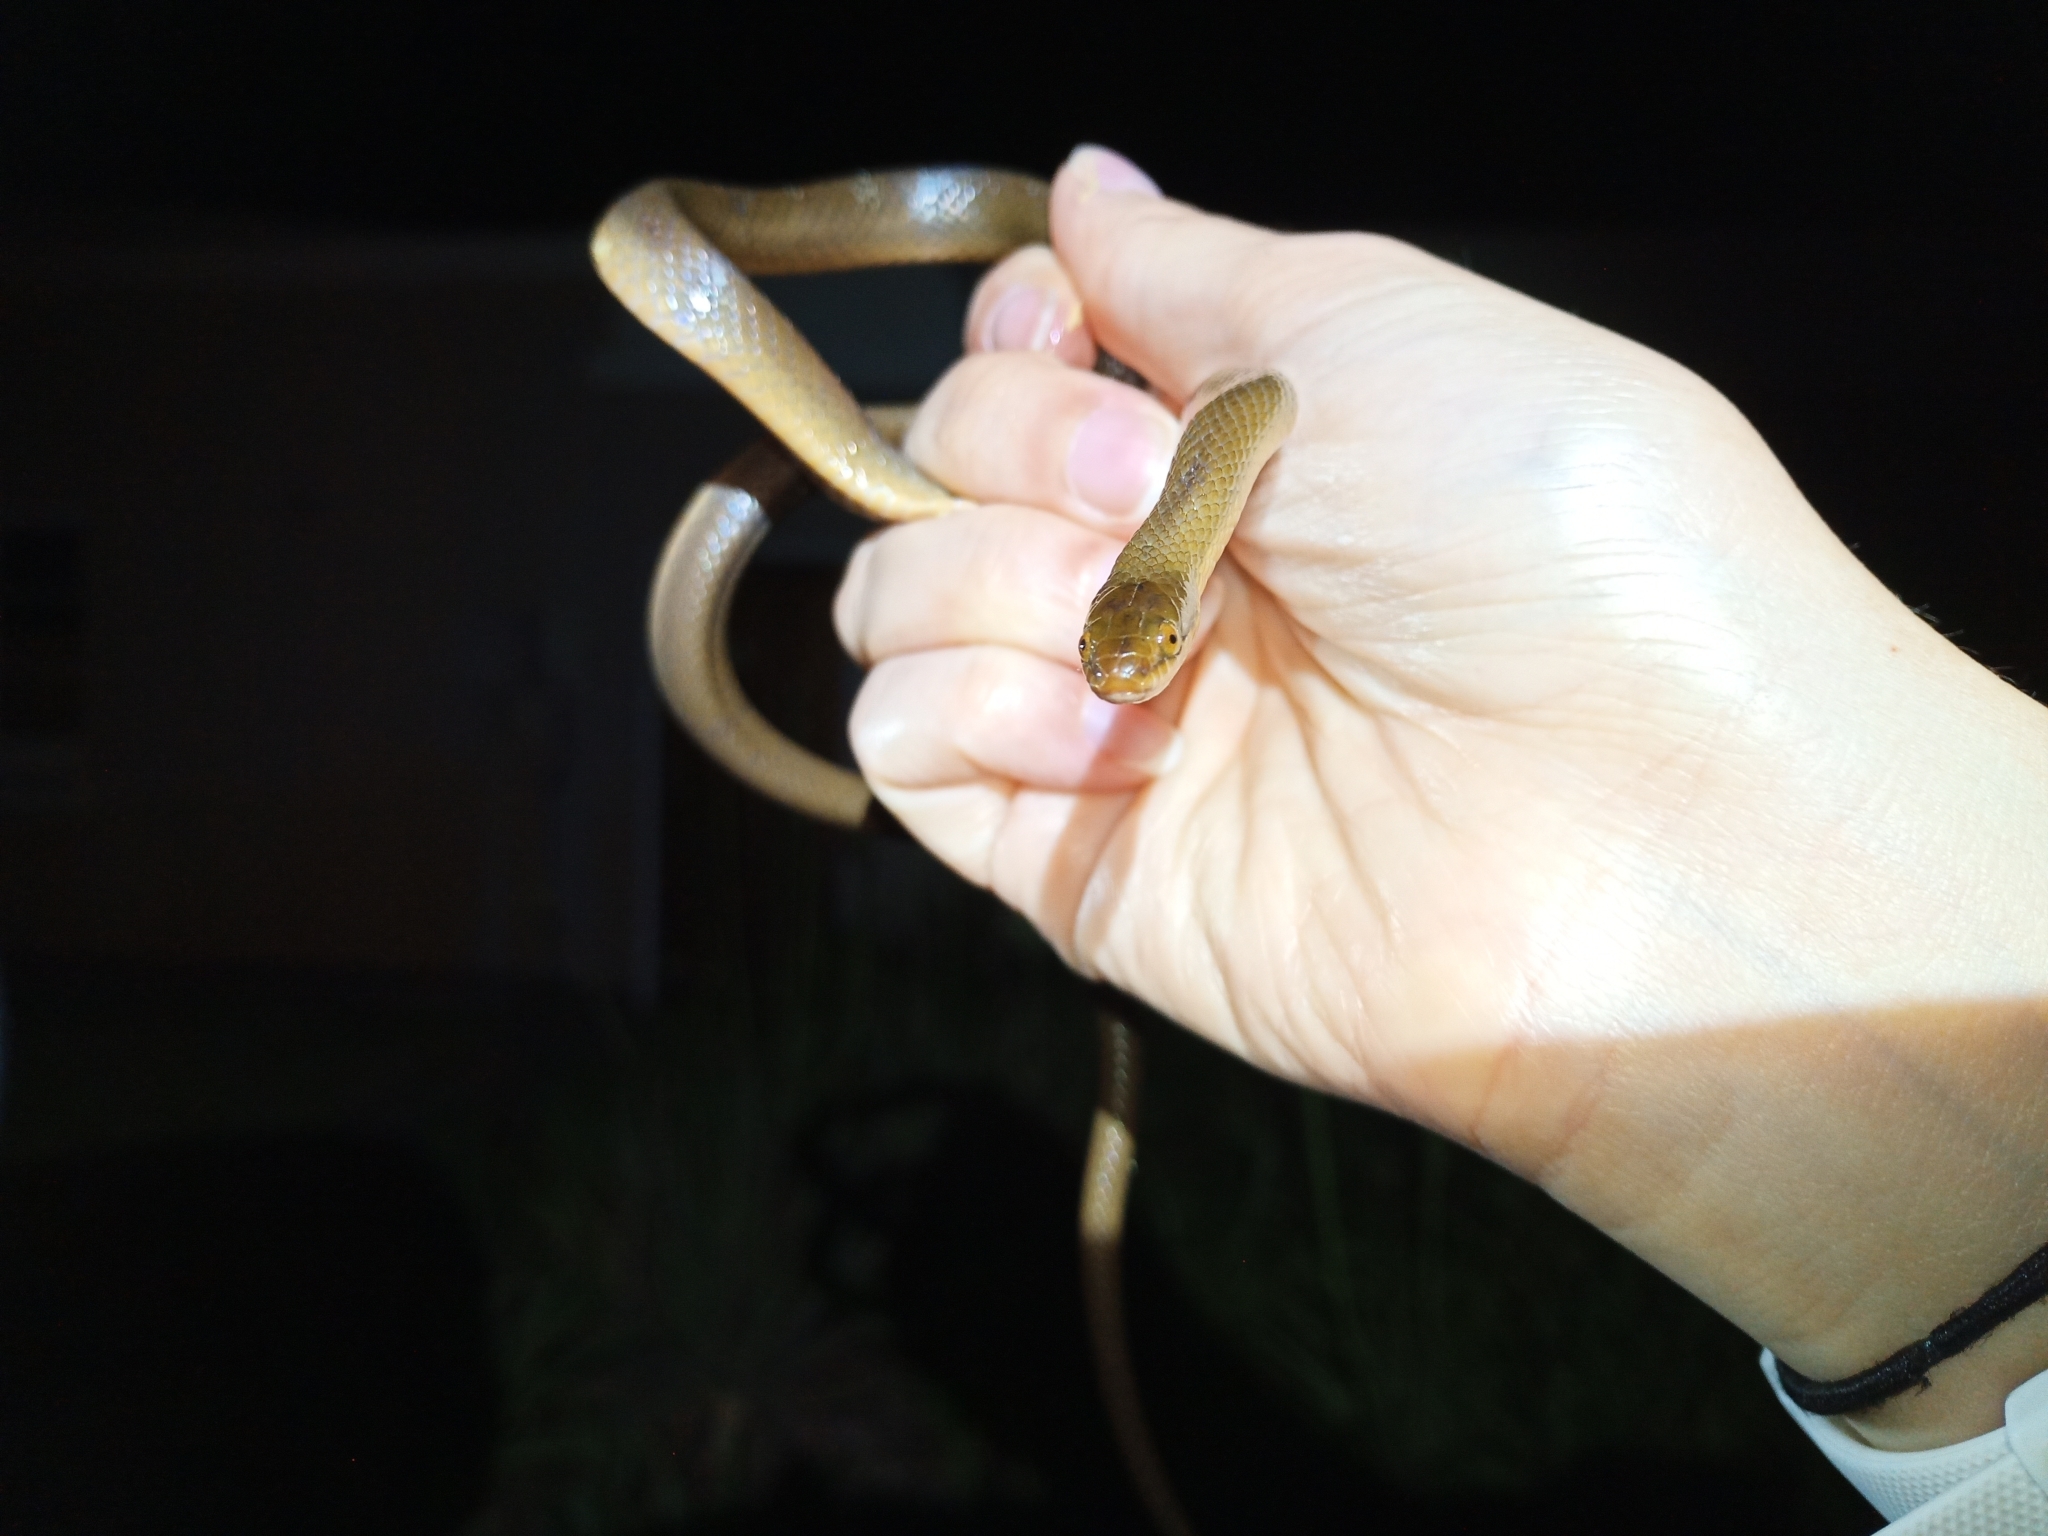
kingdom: Animalia
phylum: Chordata
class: Squamata
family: Lamprophiidae
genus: Lycodonomorphus
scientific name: Lycodonomorphus rufulus
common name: Brown water snake
